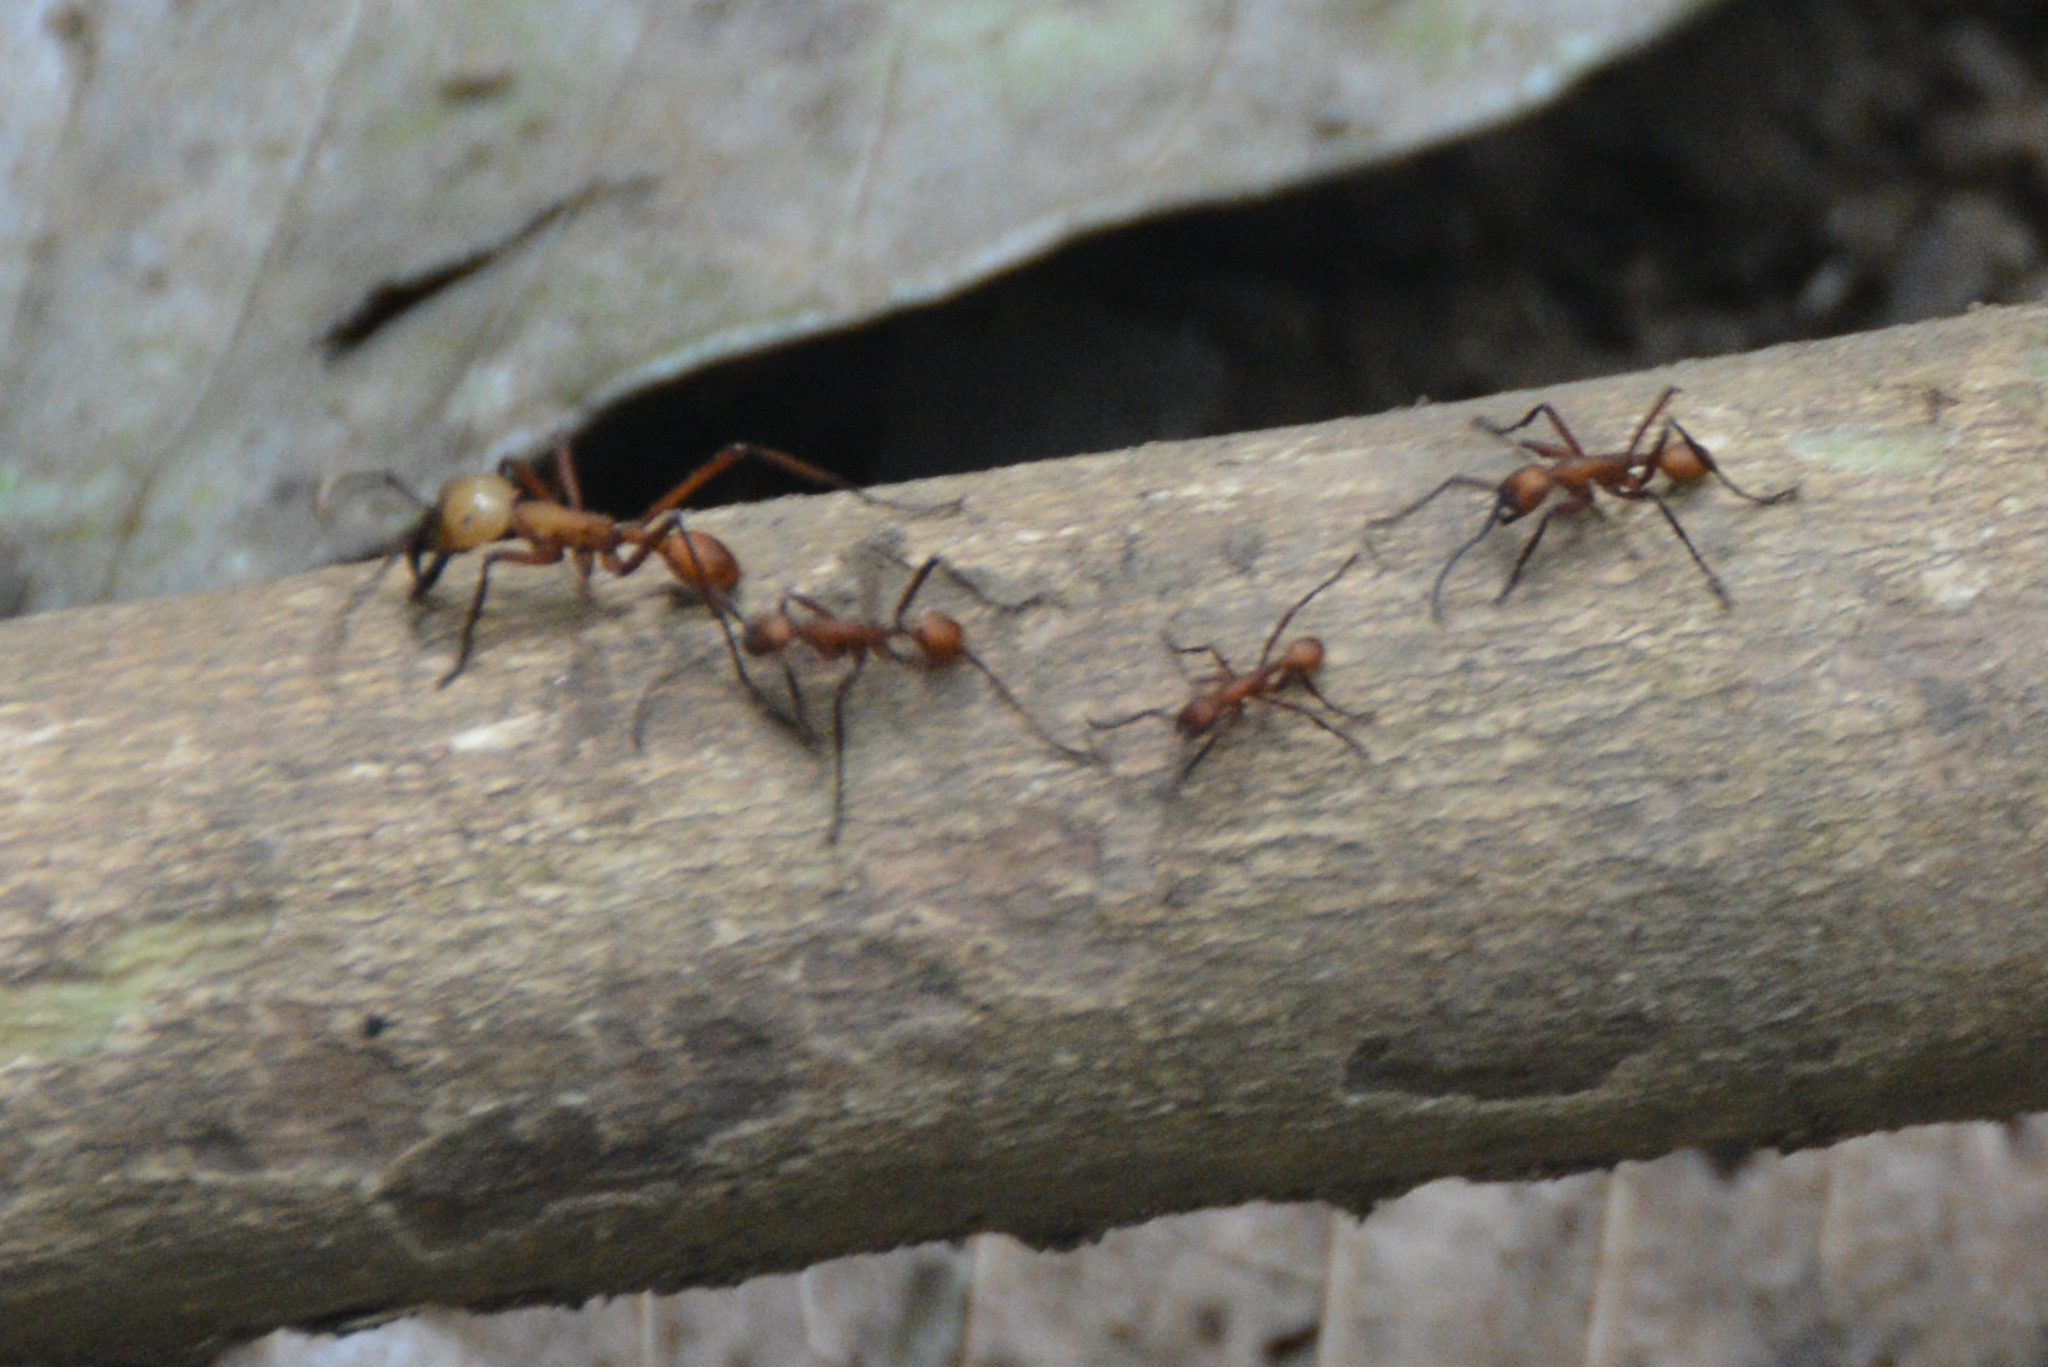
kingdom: Animalia
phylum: Arthropoda
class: Insecta
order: Hymenoptera
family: Formicidae
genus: Eciton
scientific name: Eciton hamatum
